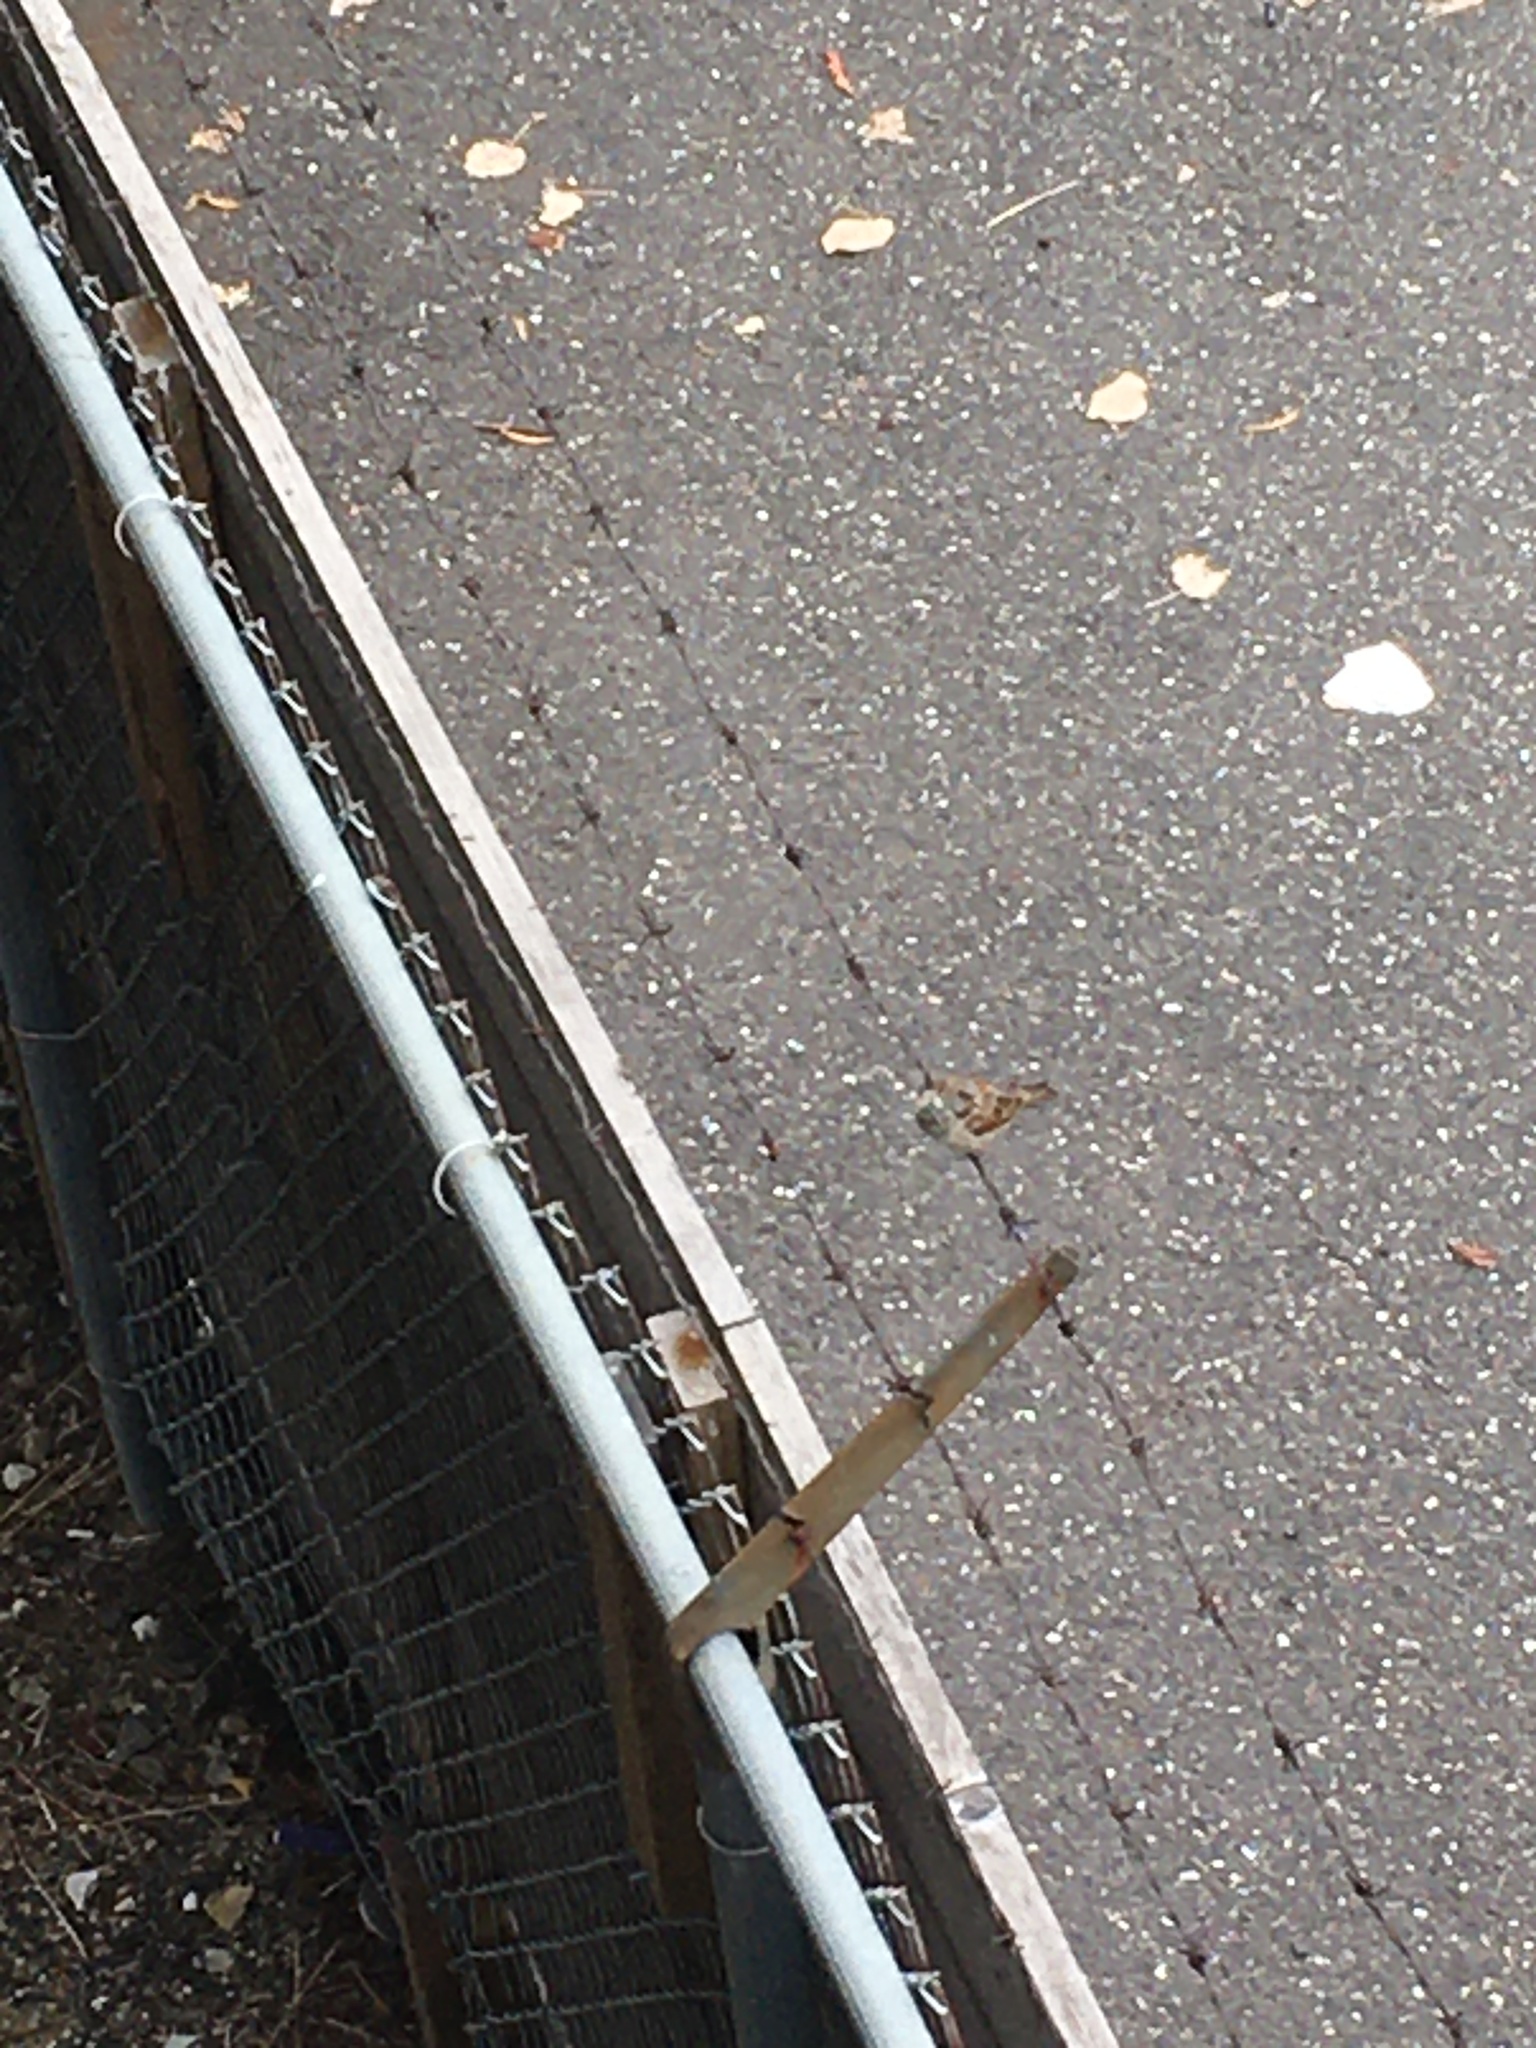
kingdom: Animalia
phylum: Chordata
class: Aves
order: Passeriformes
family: Passeridae
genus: Passer
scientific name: Passer domesticus
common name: House sparrow
